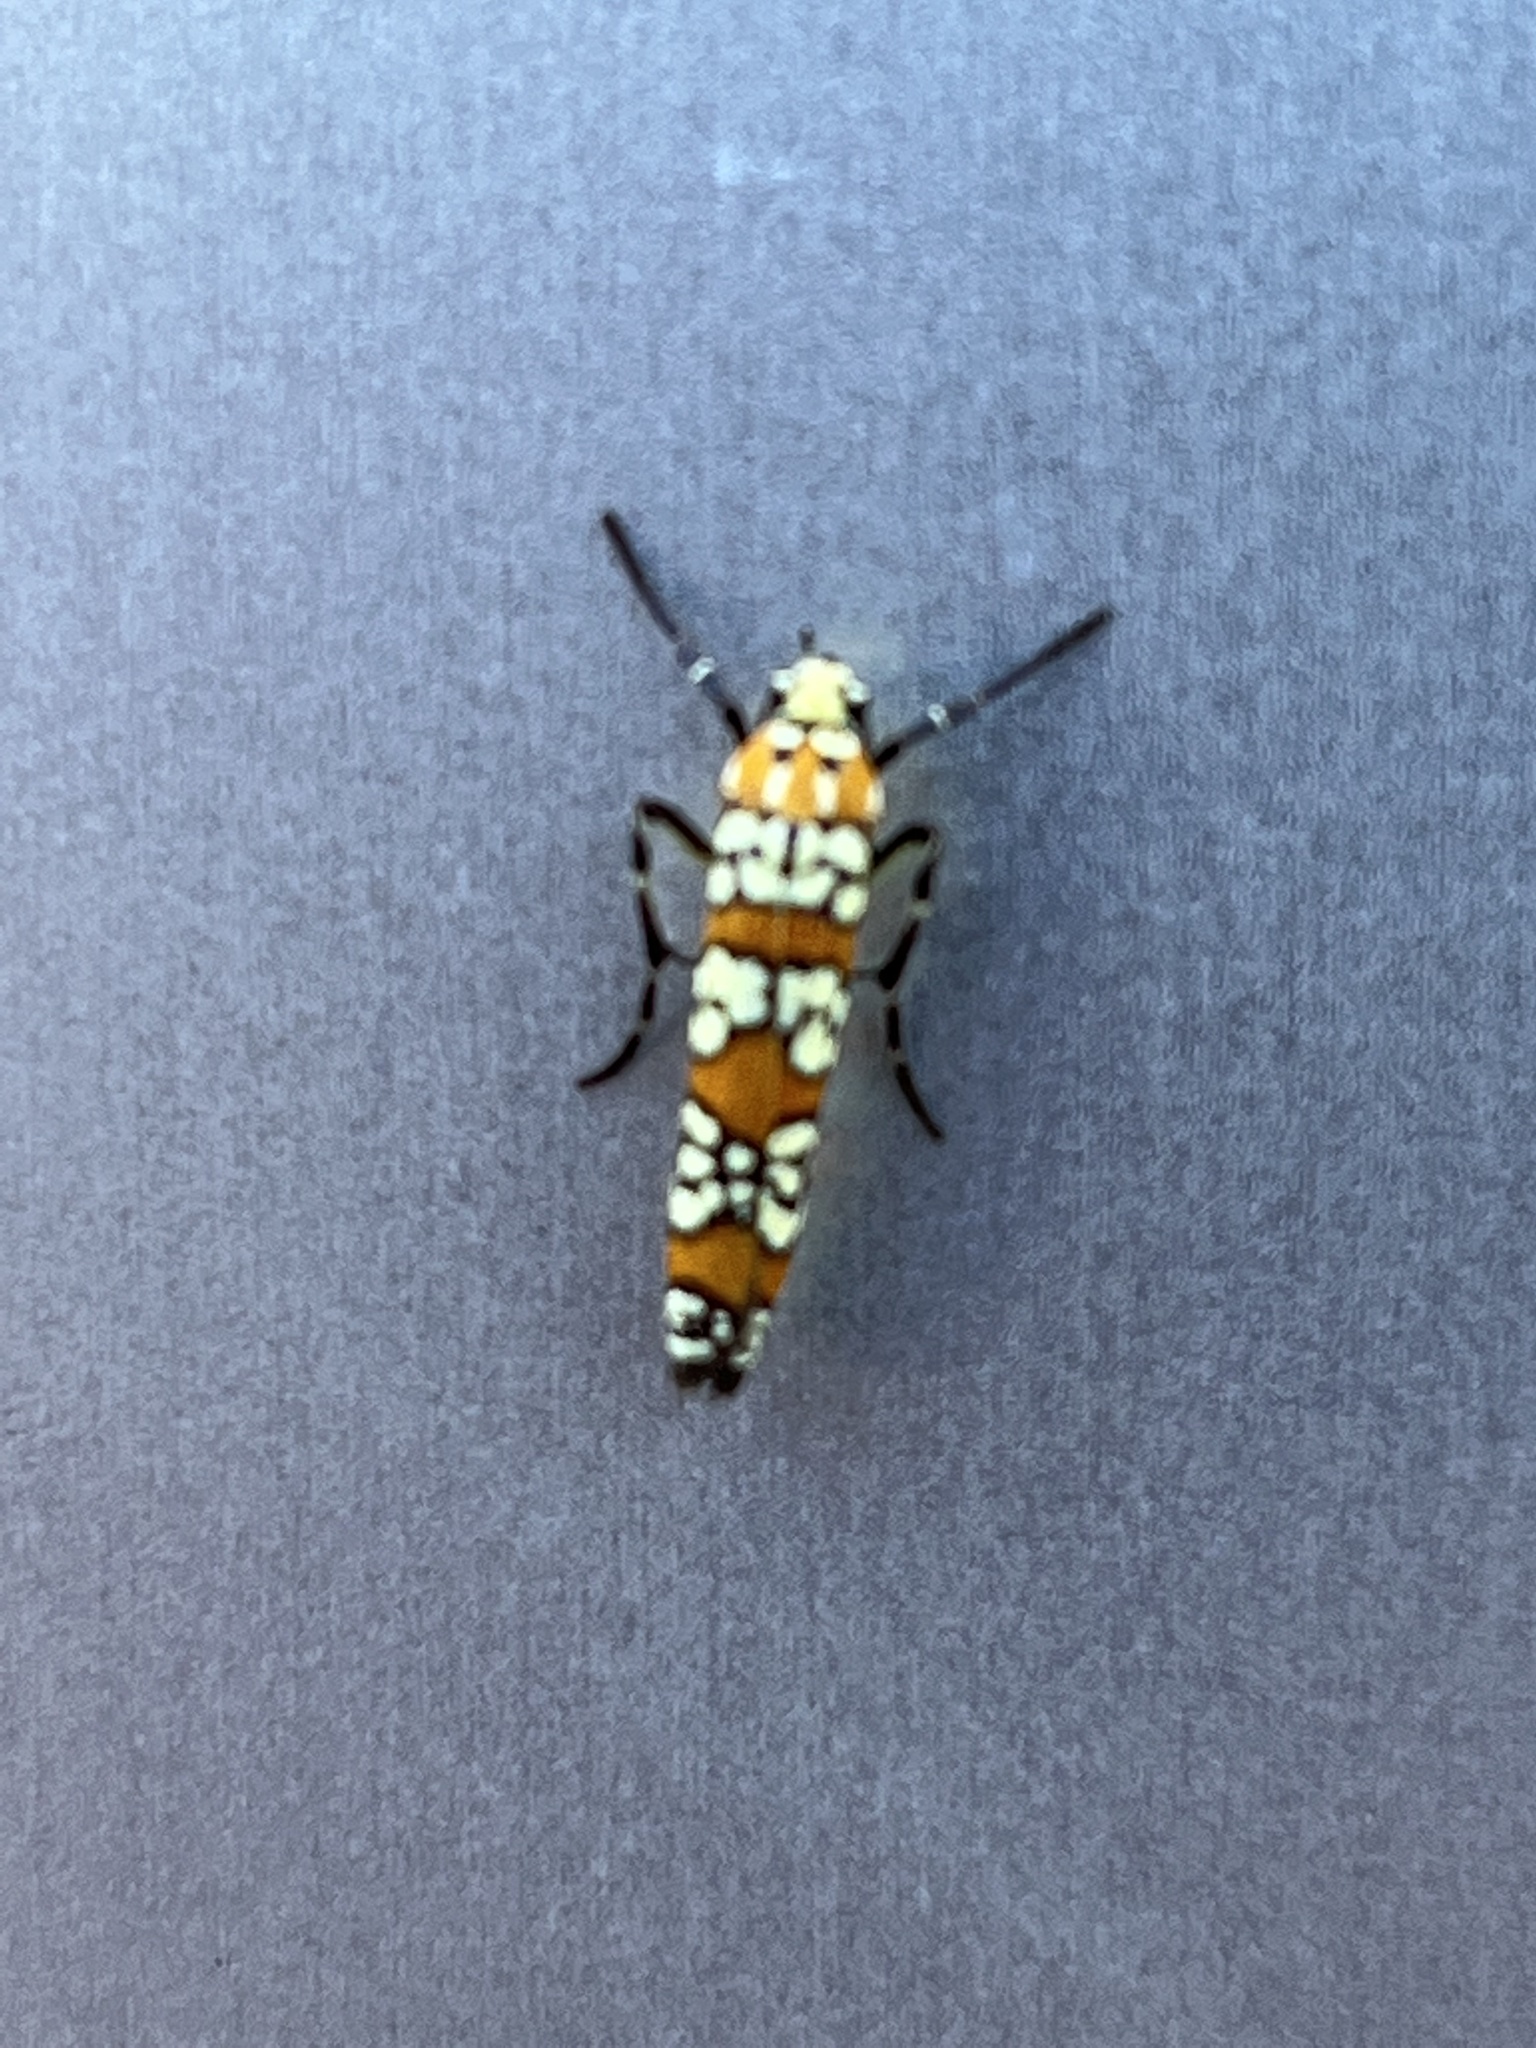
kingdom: Animalia
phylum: Arthropoda
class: Insecta
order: Lepidoptera
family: Attevidae
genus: Atteva
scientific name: Atteva punctella
